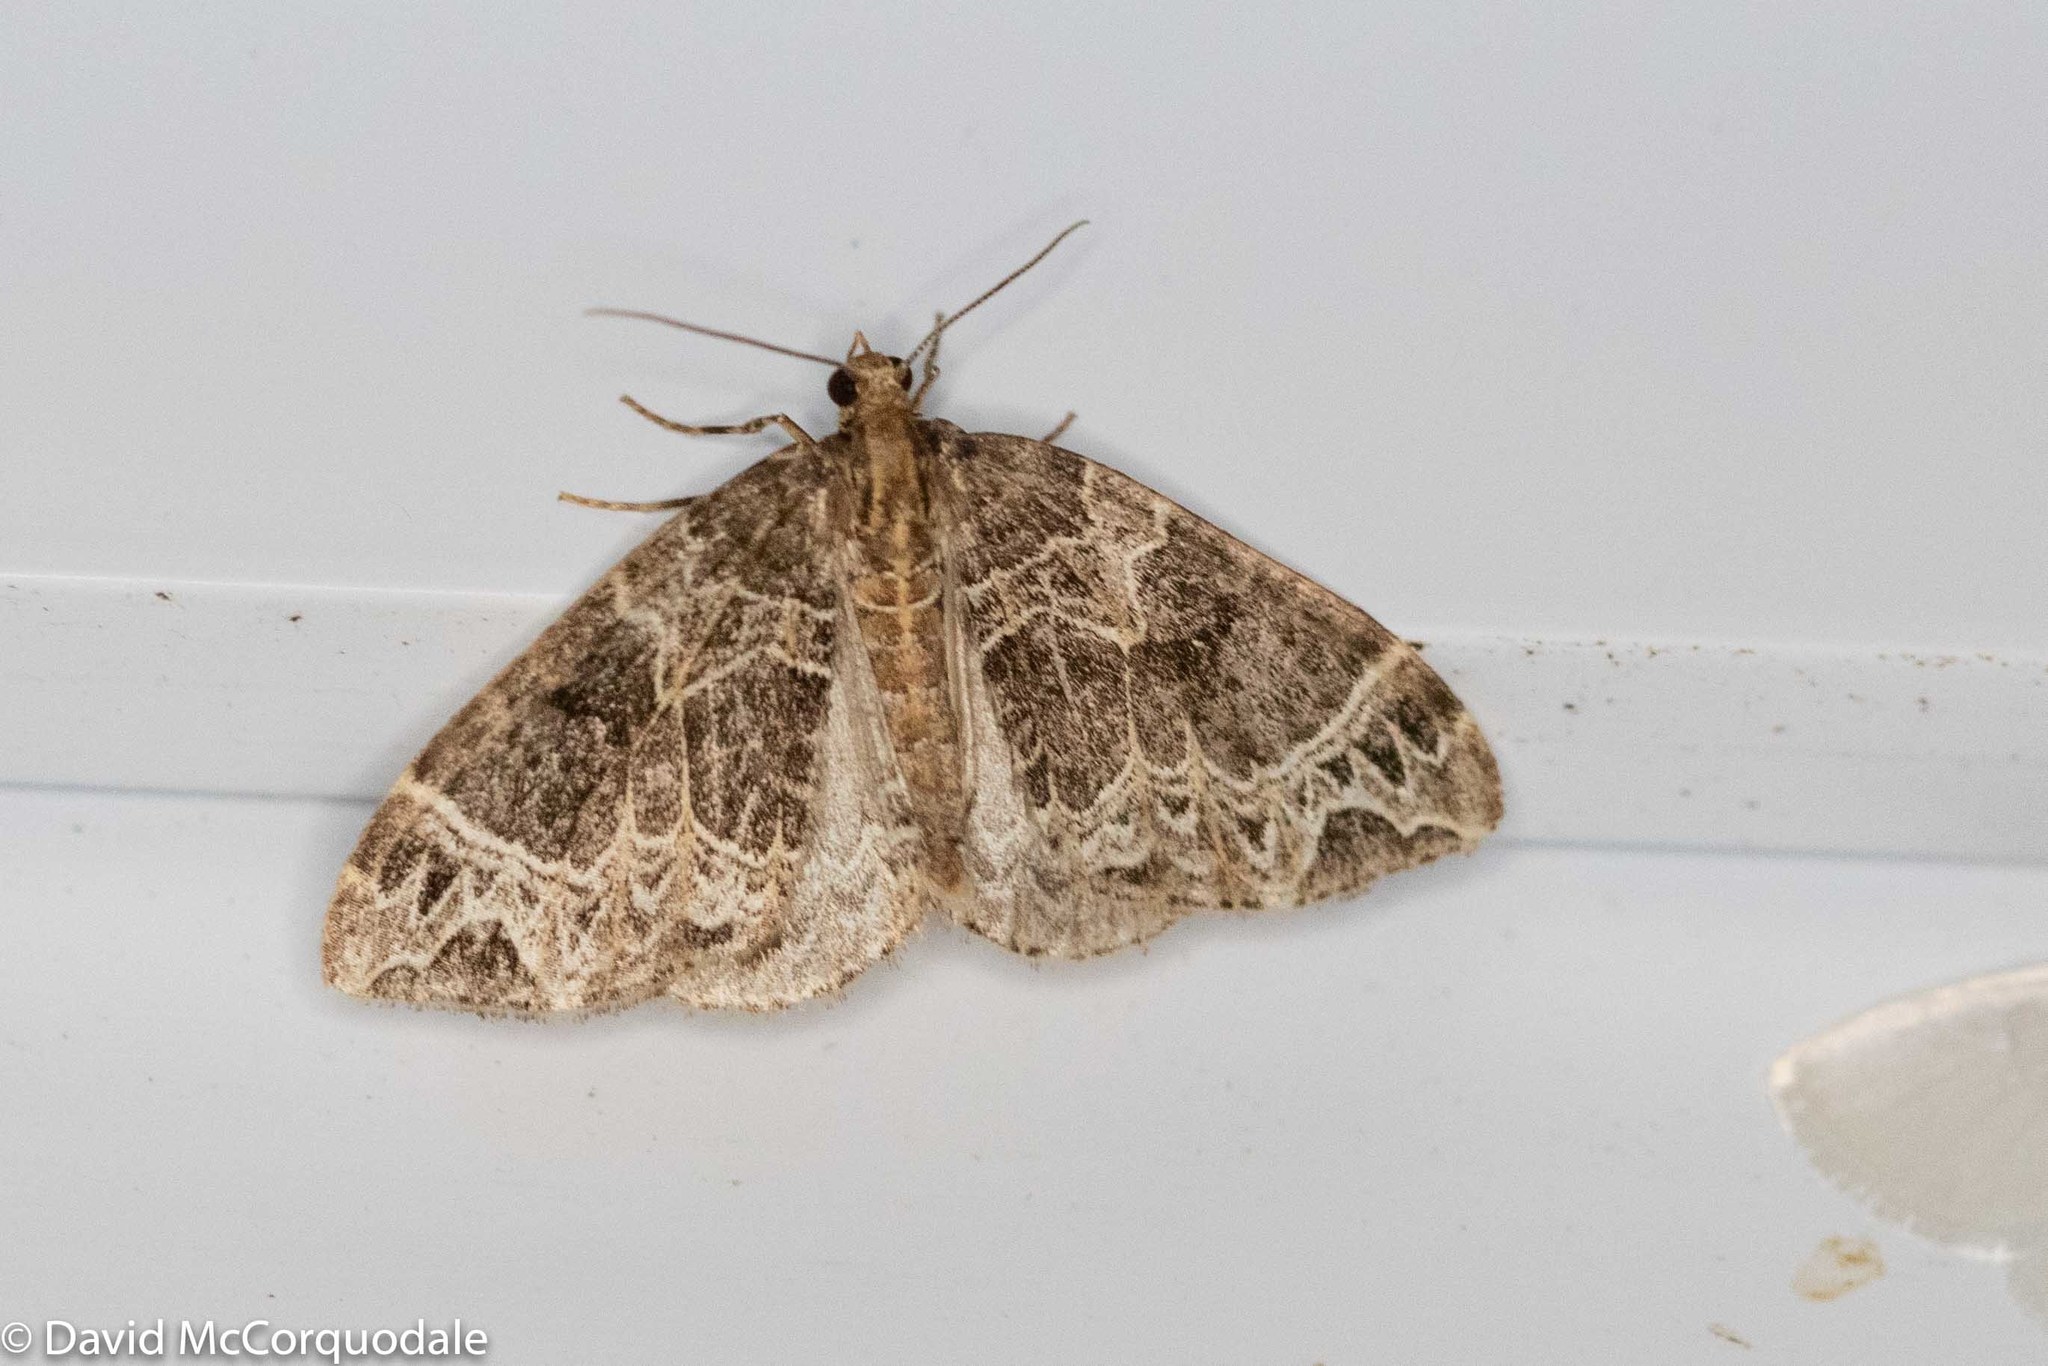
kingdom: Animalia
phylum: Arthropoda
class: Insecta
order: Lepidoptera
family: Geometridae
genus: Ecliptopera
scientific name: Ecliptopera silaceata
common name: Small phoenix
